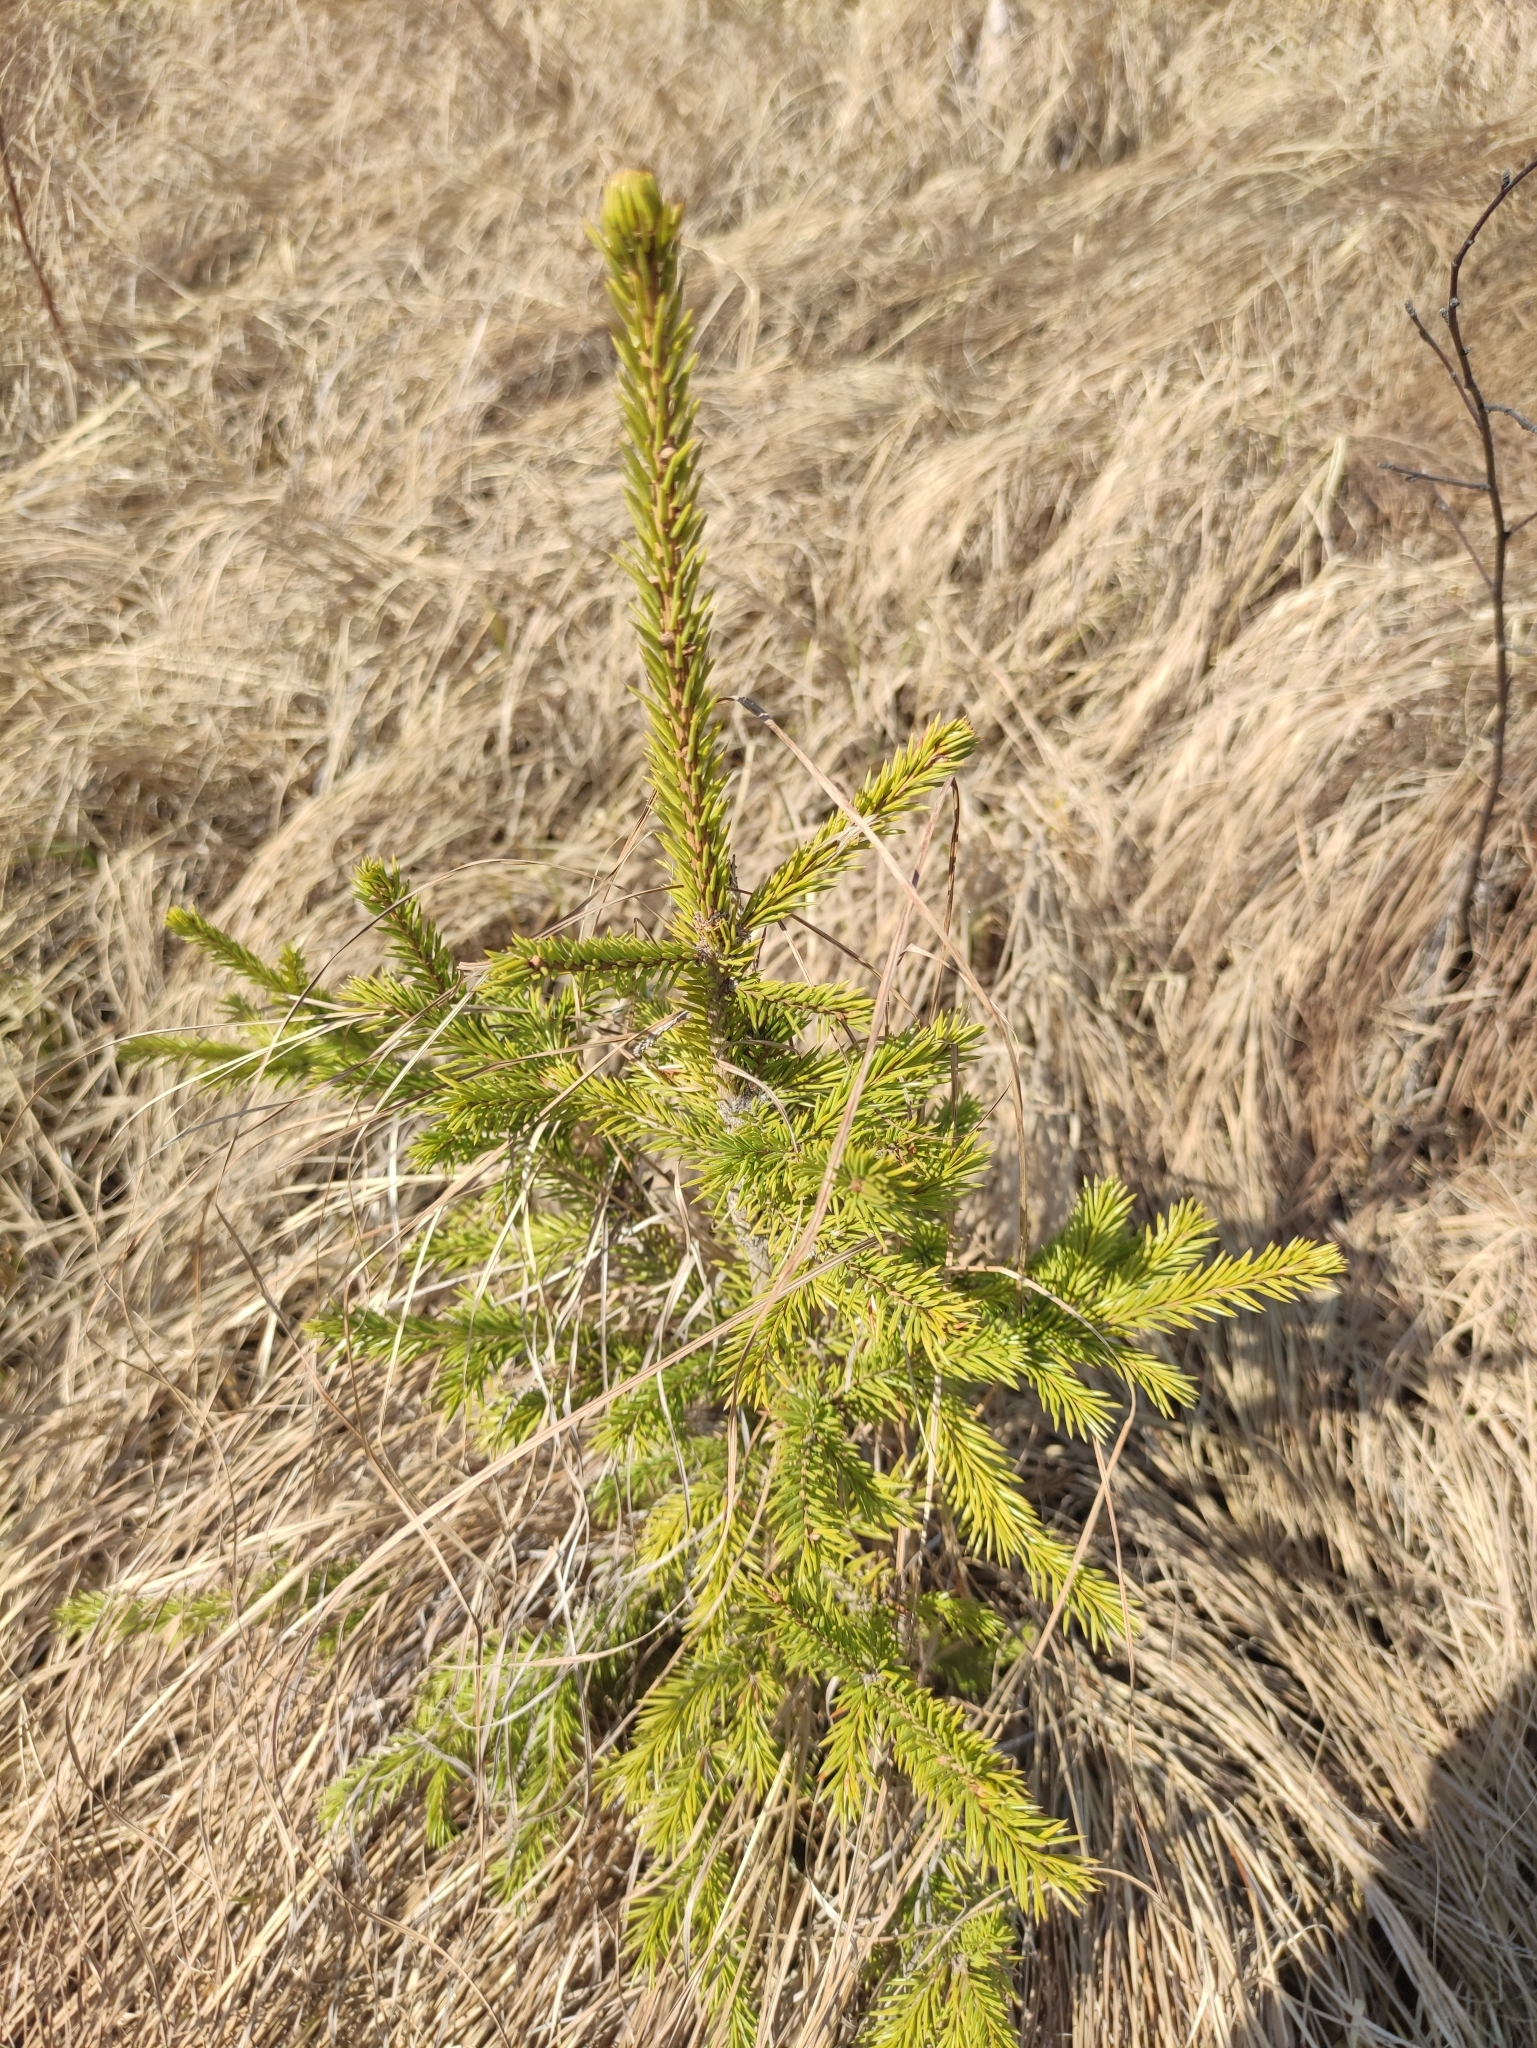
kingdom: Plantae
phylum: Tracheophyta
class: Pinopsida
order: Pinales
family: Pinaceae
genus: Picea
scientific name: Picea obovata
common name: Siberian spruce
